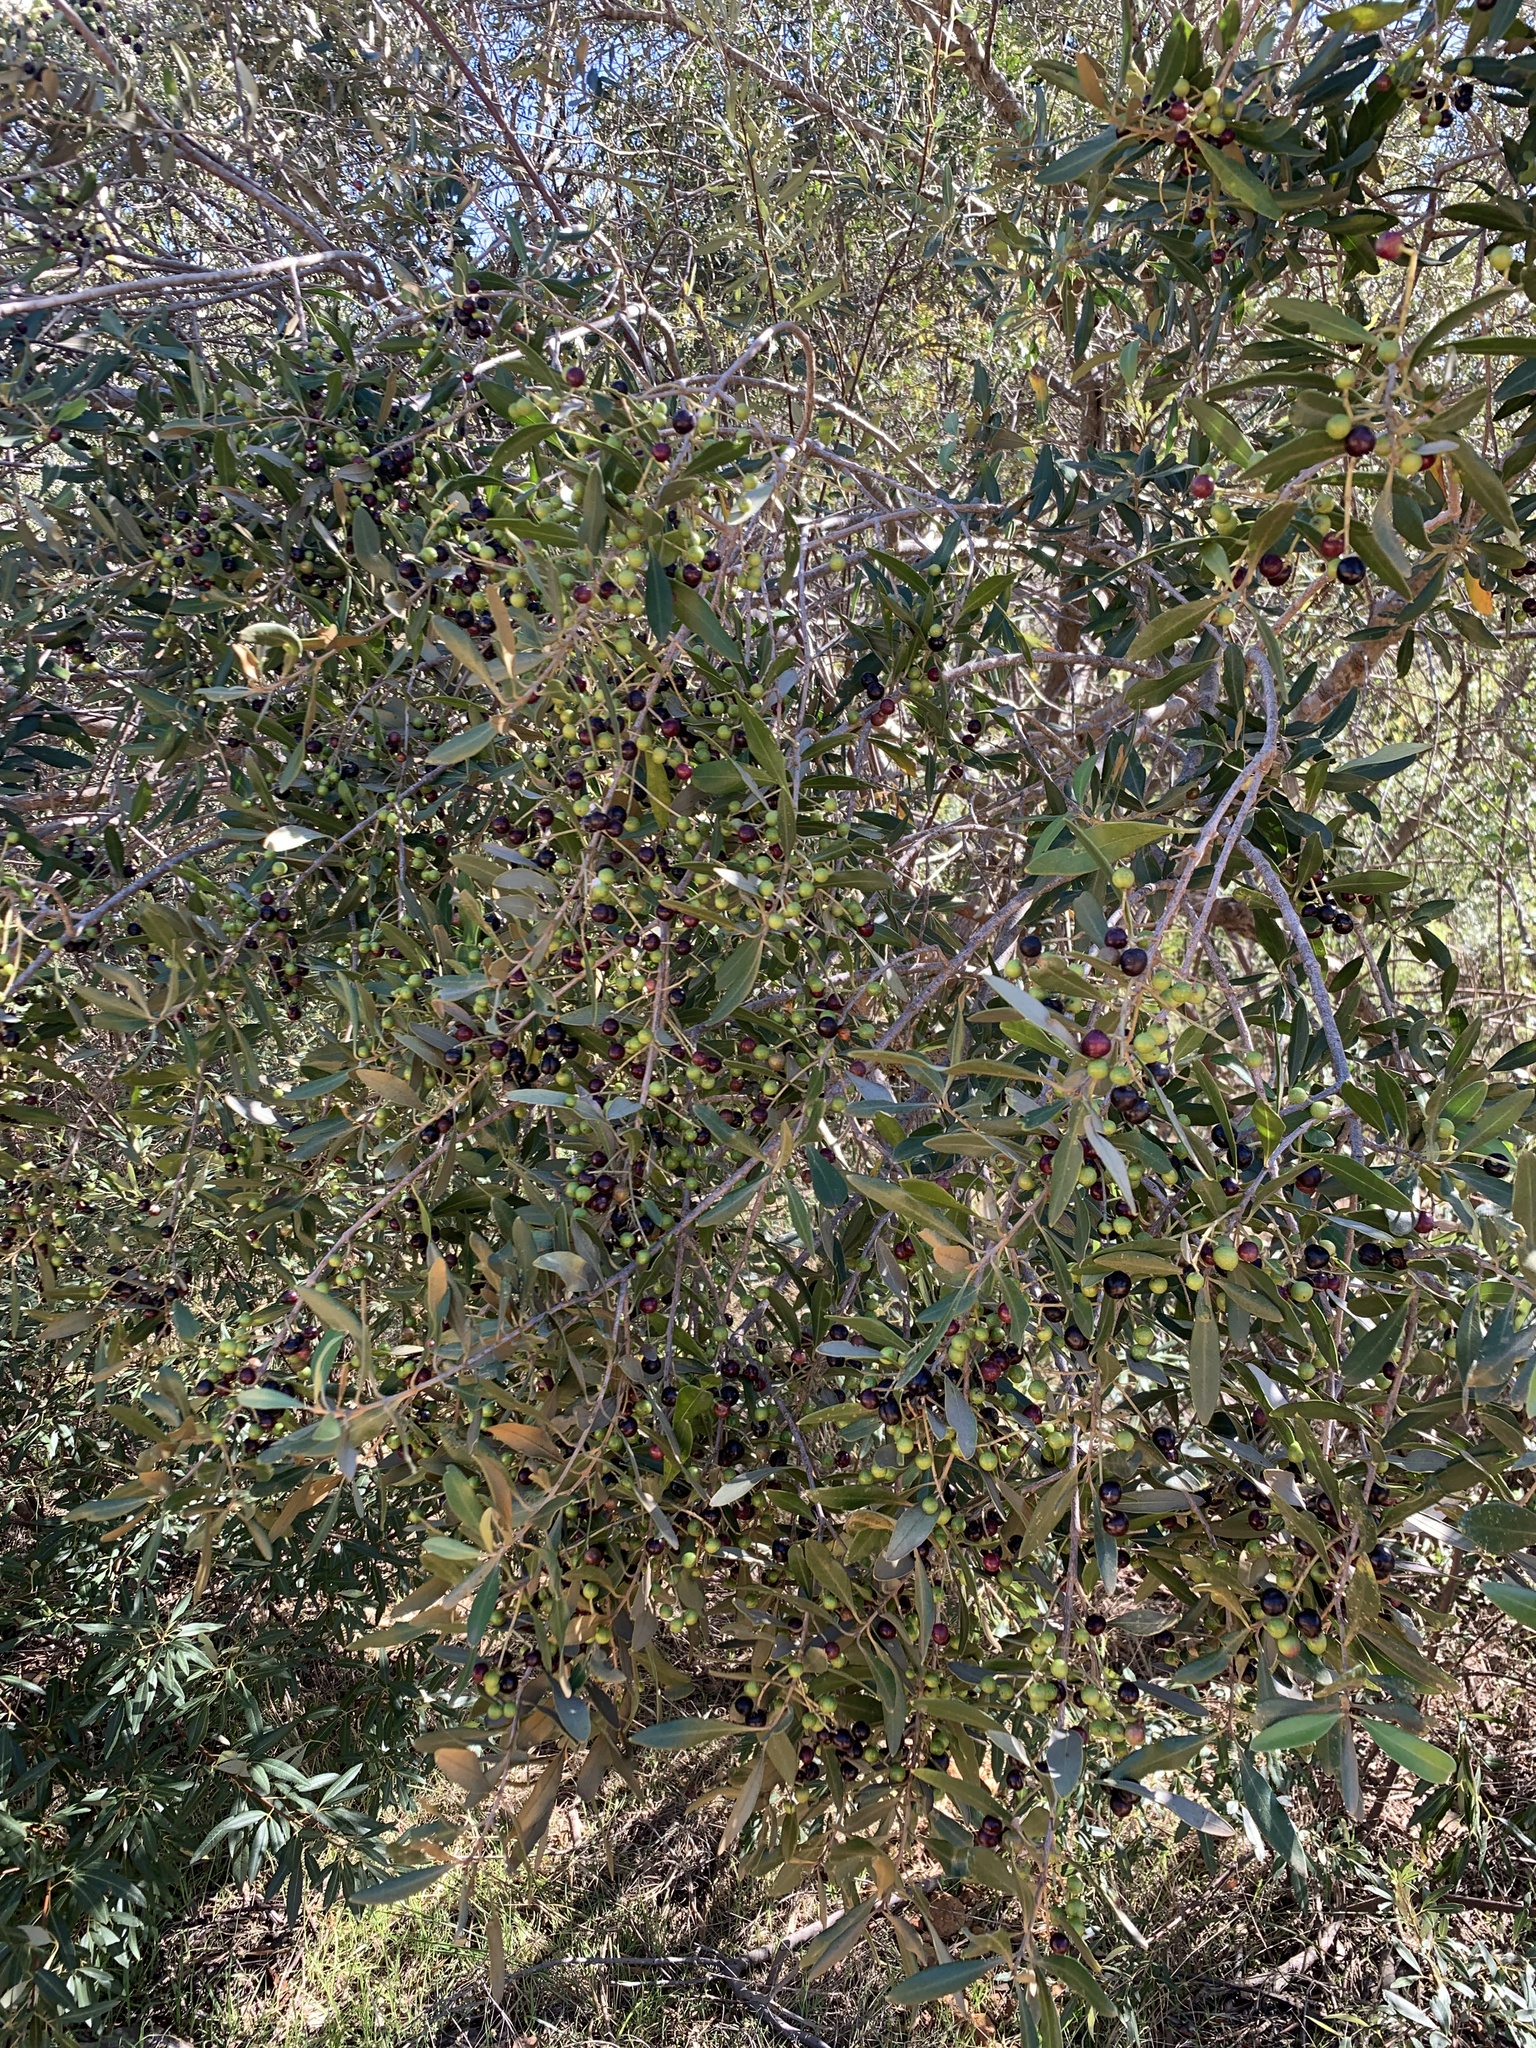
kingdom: Plantae
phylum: Tracheophyta
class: Magnoliopsida
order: Lamiales
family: Oleaceae
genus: Olea
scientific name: Olea europaea
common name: Olive
